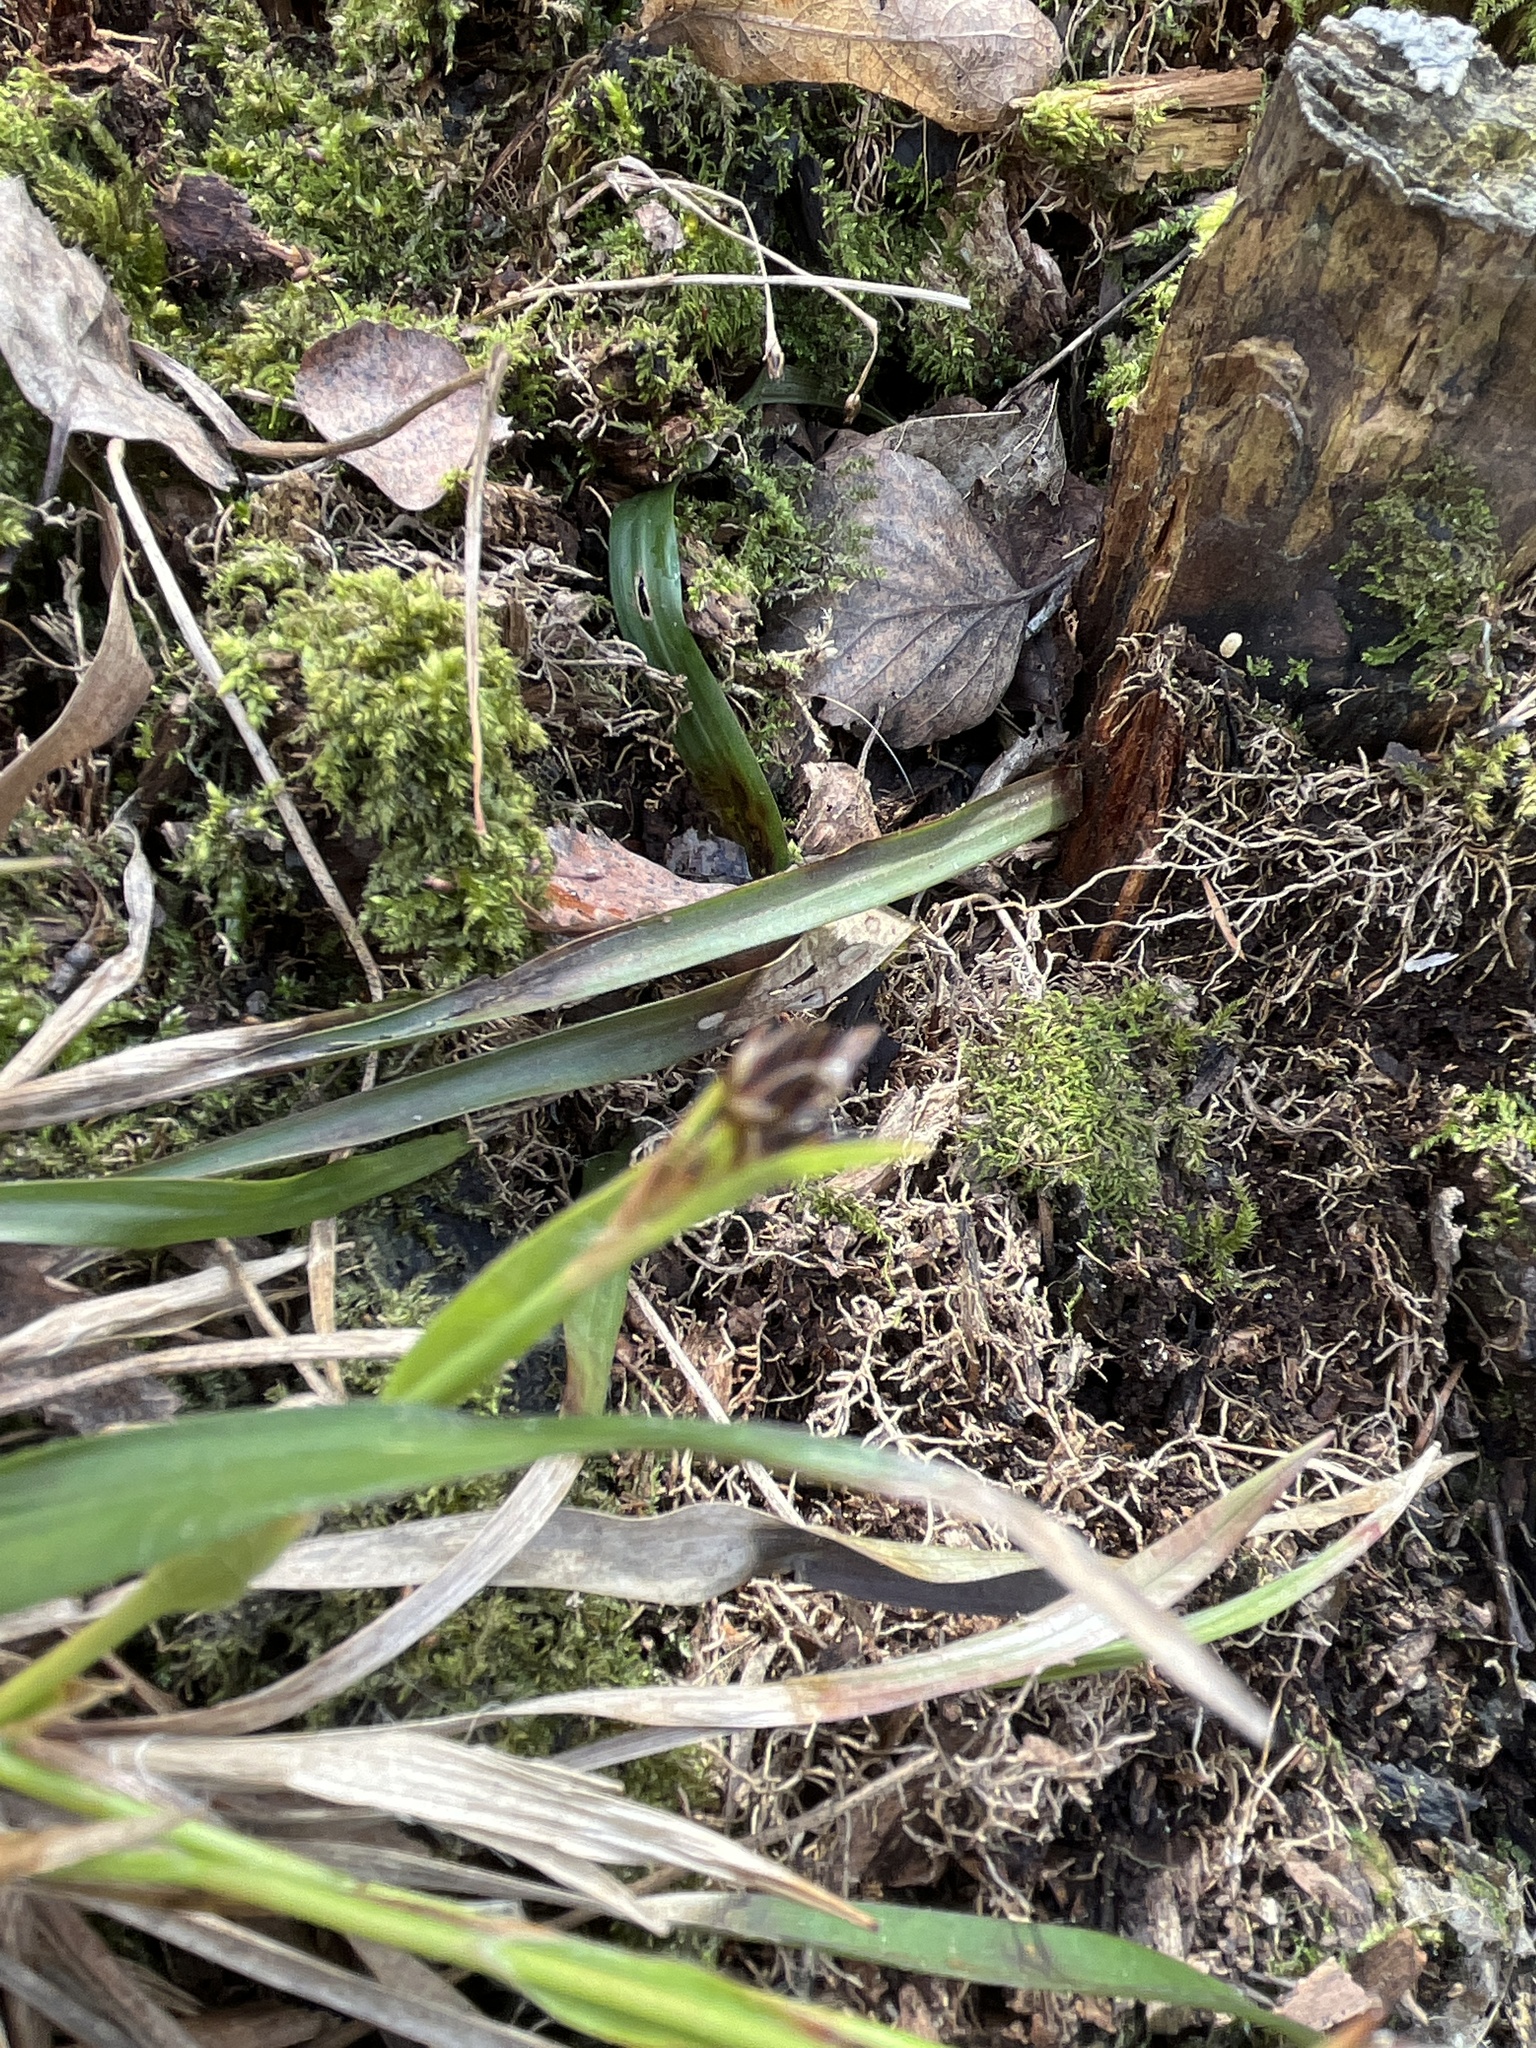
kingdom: Plantae
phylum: Tracheophyta
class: Liliopsida
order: Poales
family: Juncaceae
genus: Luzula
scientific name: Luzula pilosa
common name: Hairy wood-rush
